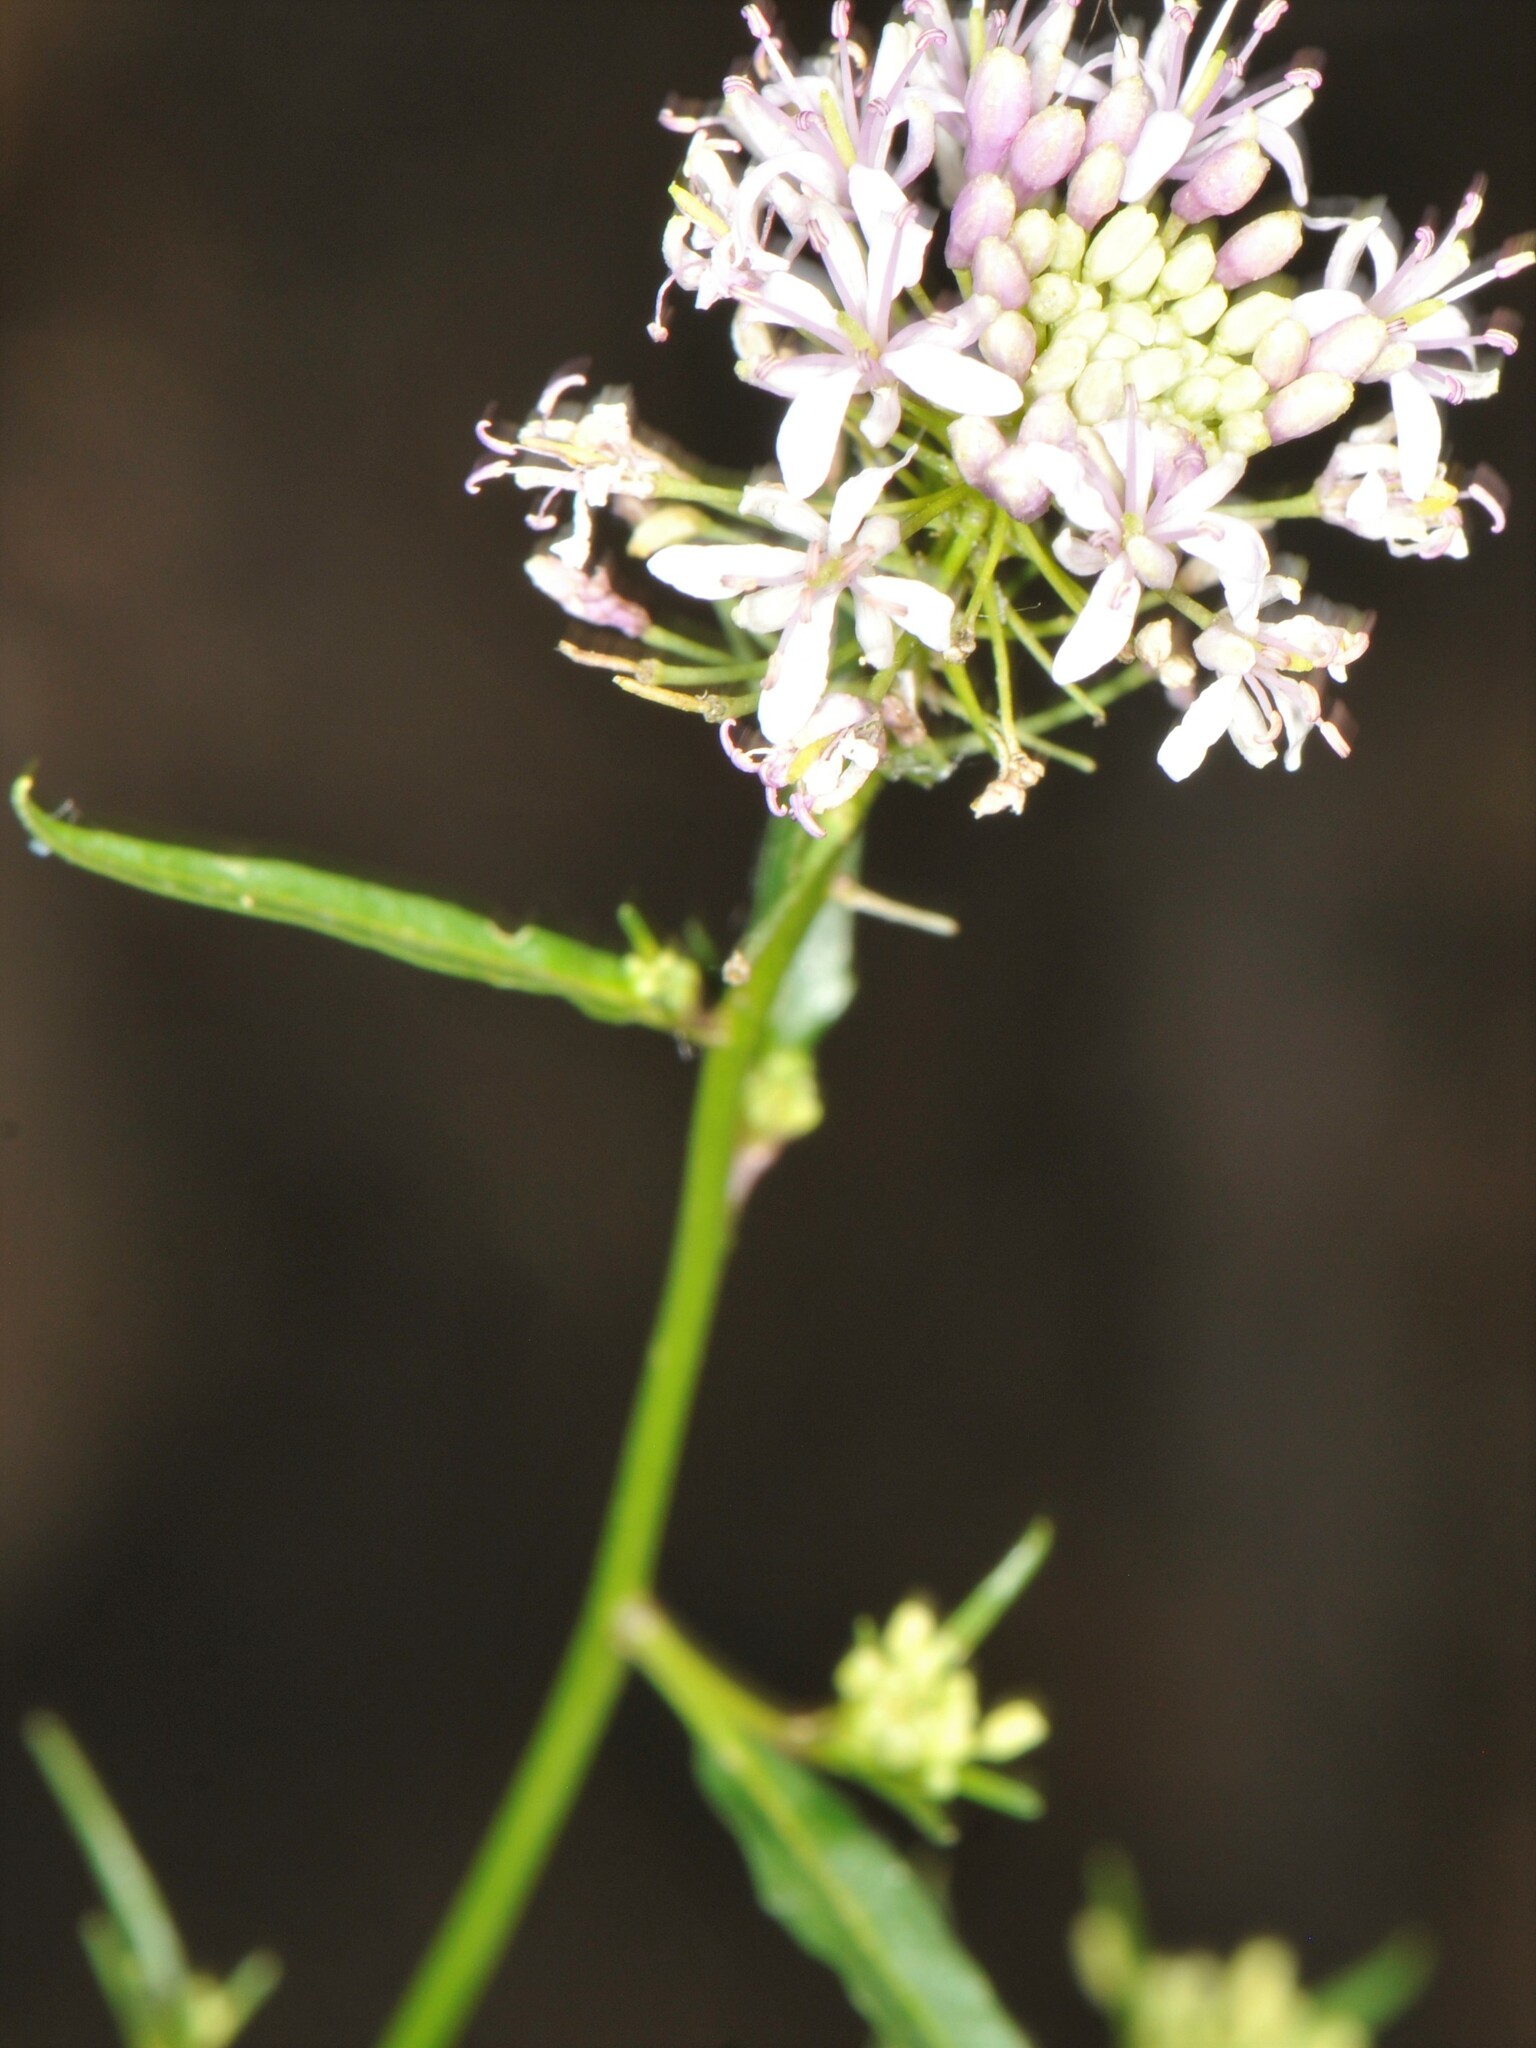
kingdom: Plantae
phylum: Tracheophyta
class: Magnoliopsida
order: Brassicales
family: Brassicaceae
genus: Thelypodium
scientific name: Thelypodium wrightii
